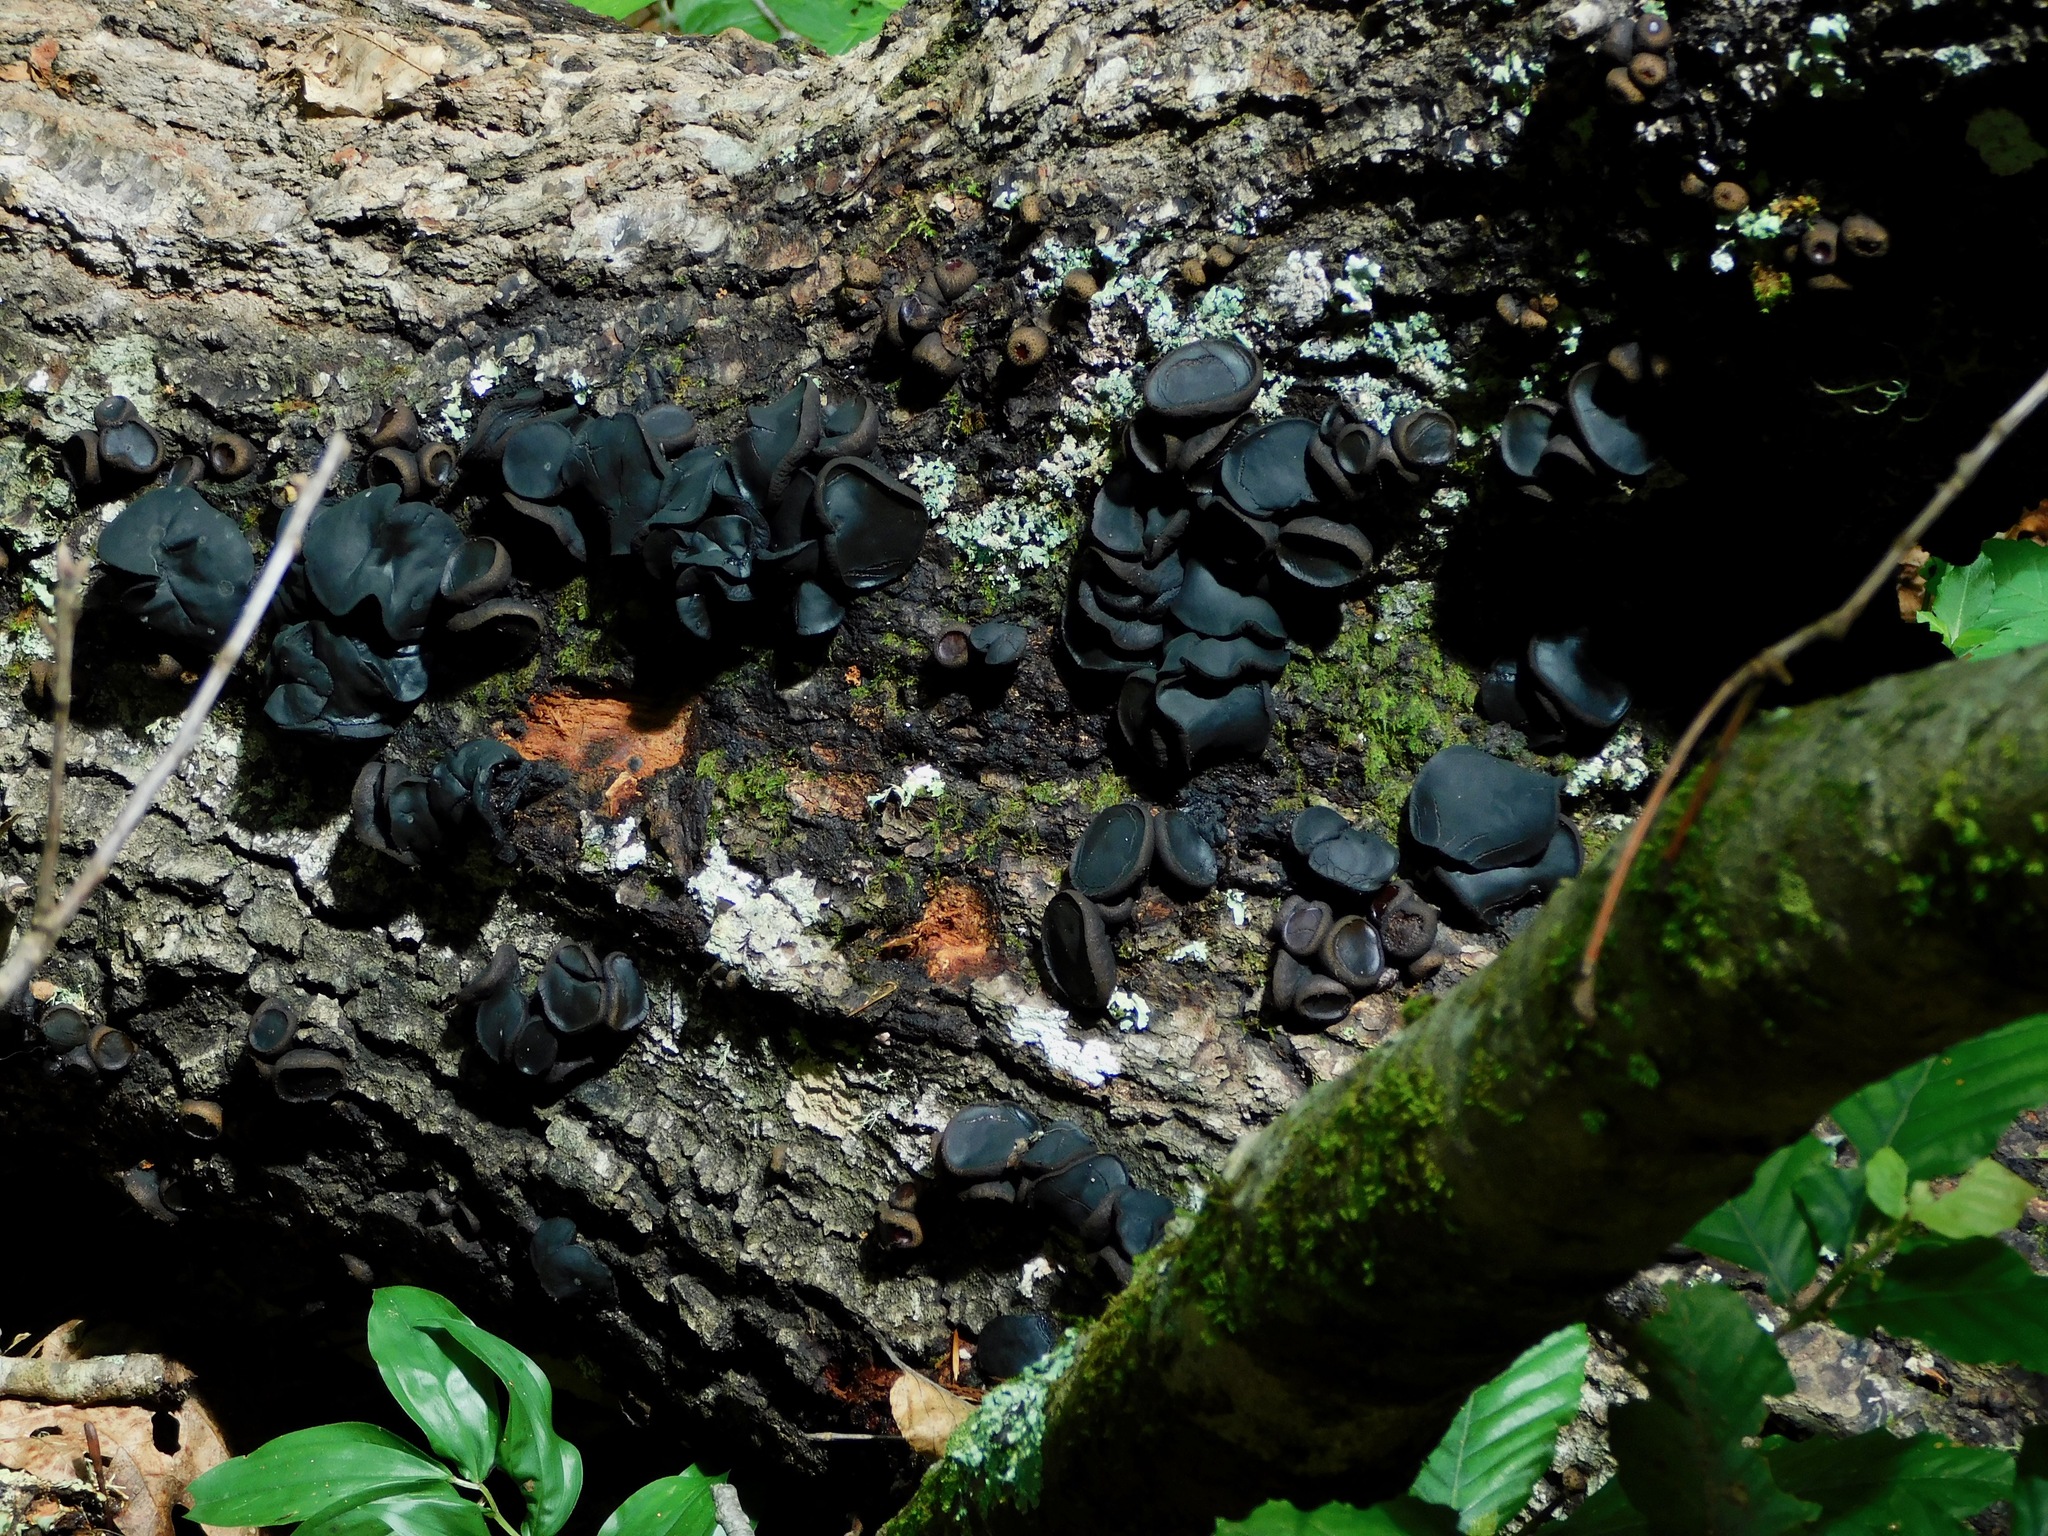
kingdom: Fungi
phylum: Ascomycota
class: Leotiomycetes
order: Phacidiales
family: Phacidiaceae
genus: Bulgaria
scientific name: Bulgaria inquinans
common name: Black bulgar
